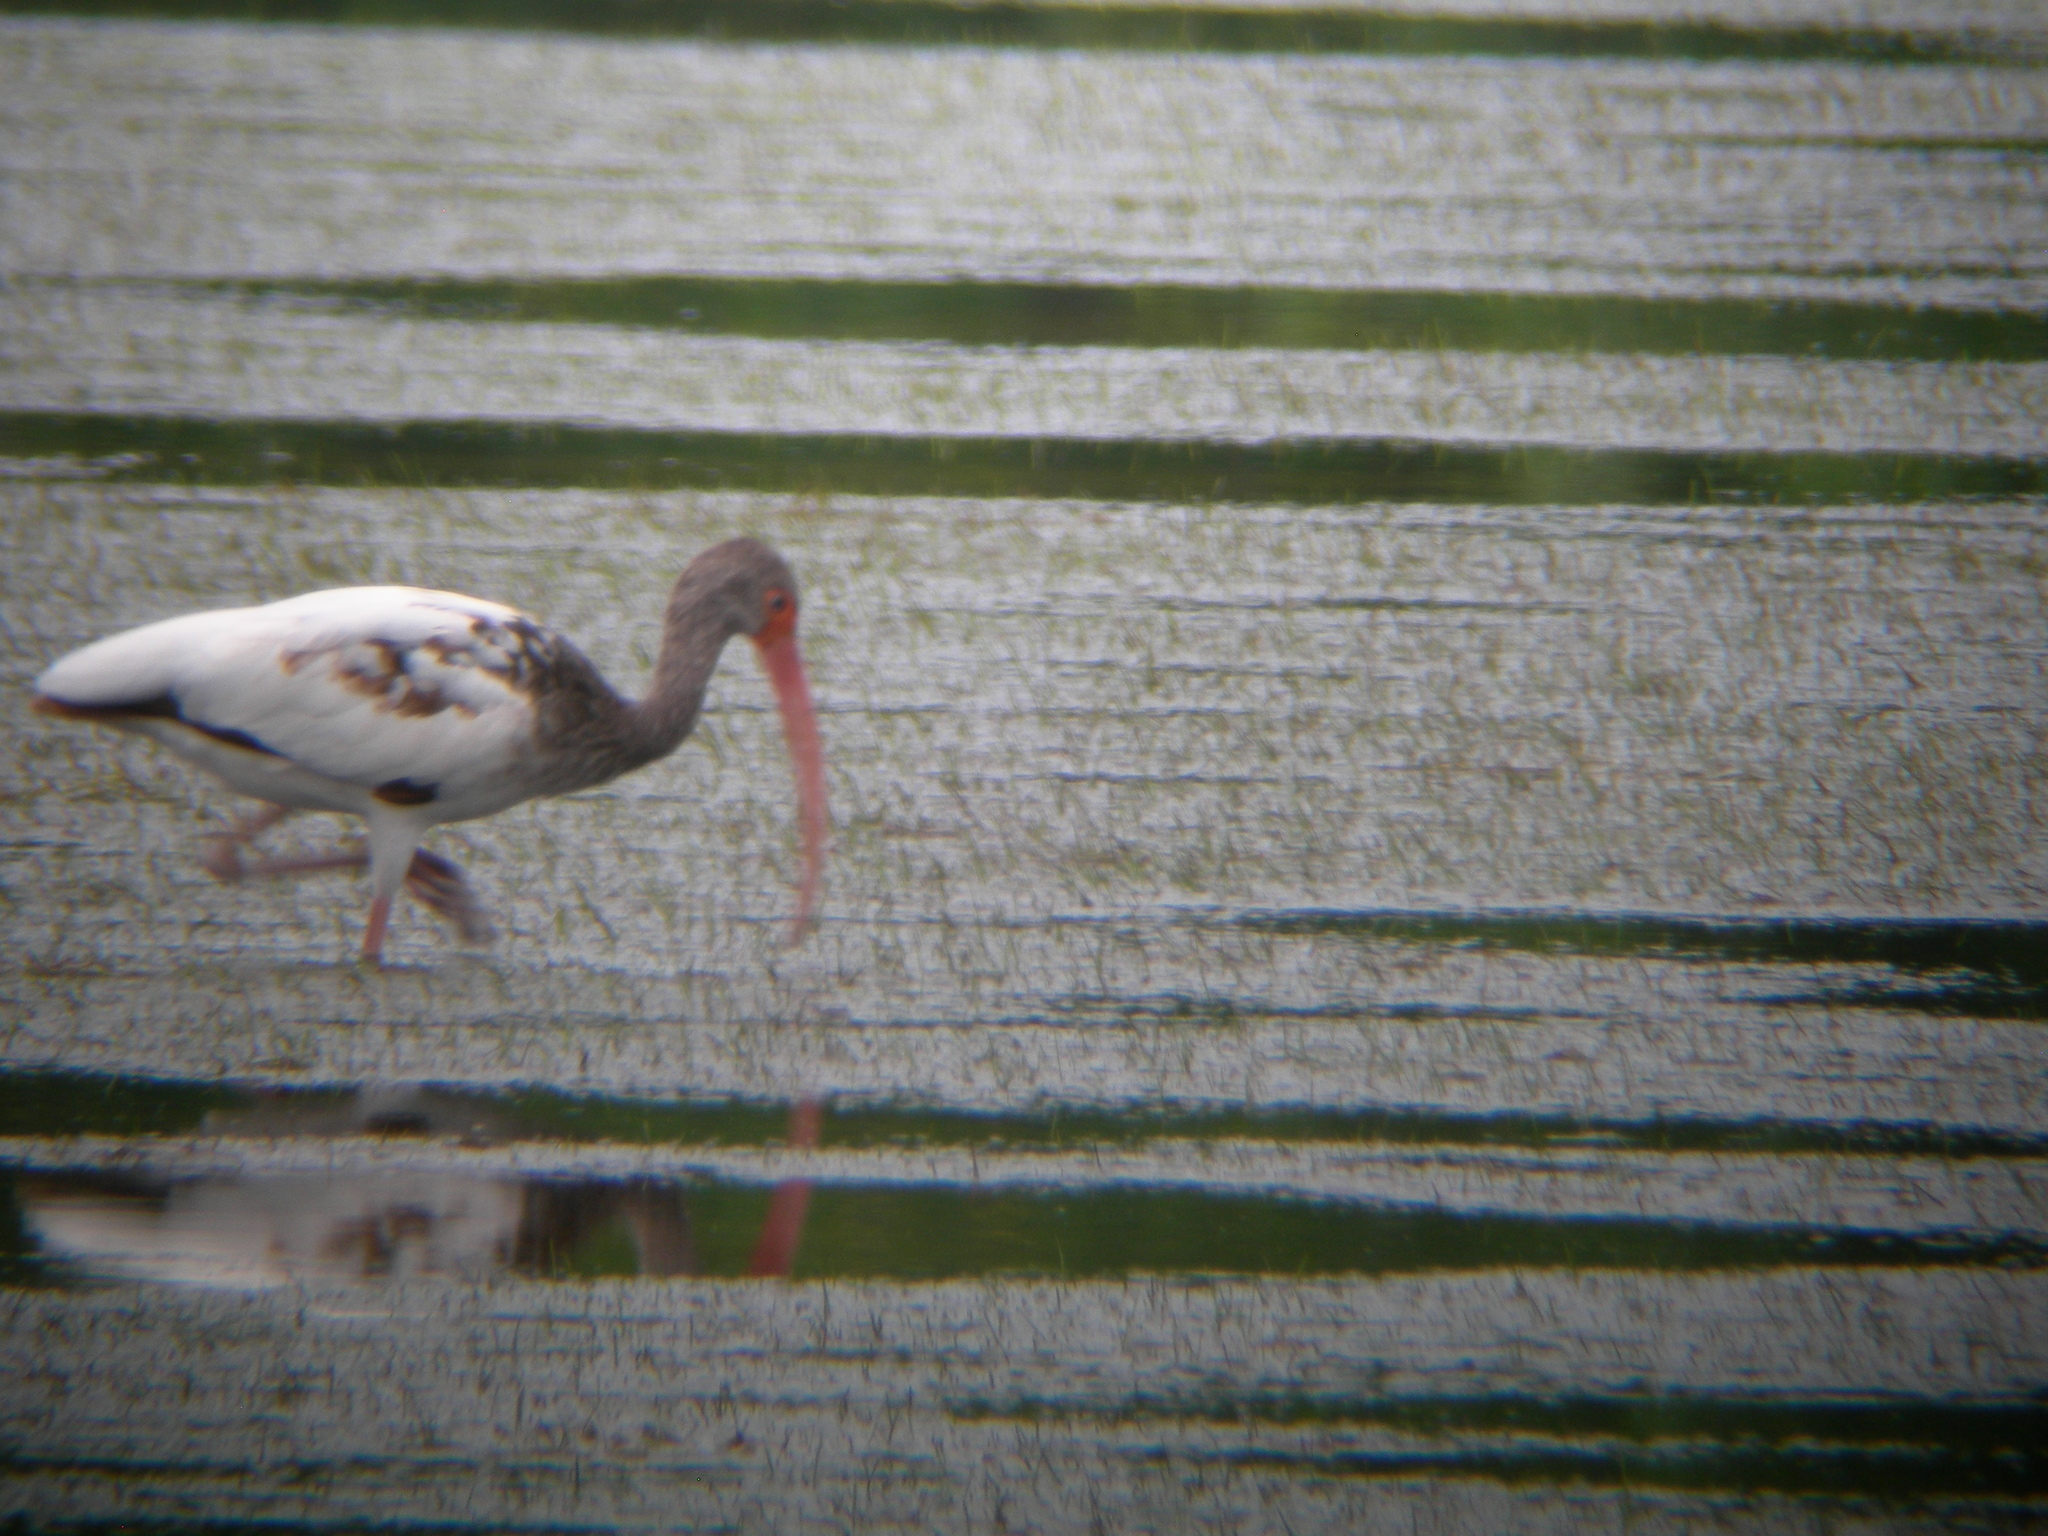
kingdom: Animalia
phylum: Chordata
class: Aves
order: Pelecaniformes
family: Threskiornithidae
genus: Eudocimus
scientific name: Eudocimus albus
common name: White ibis
